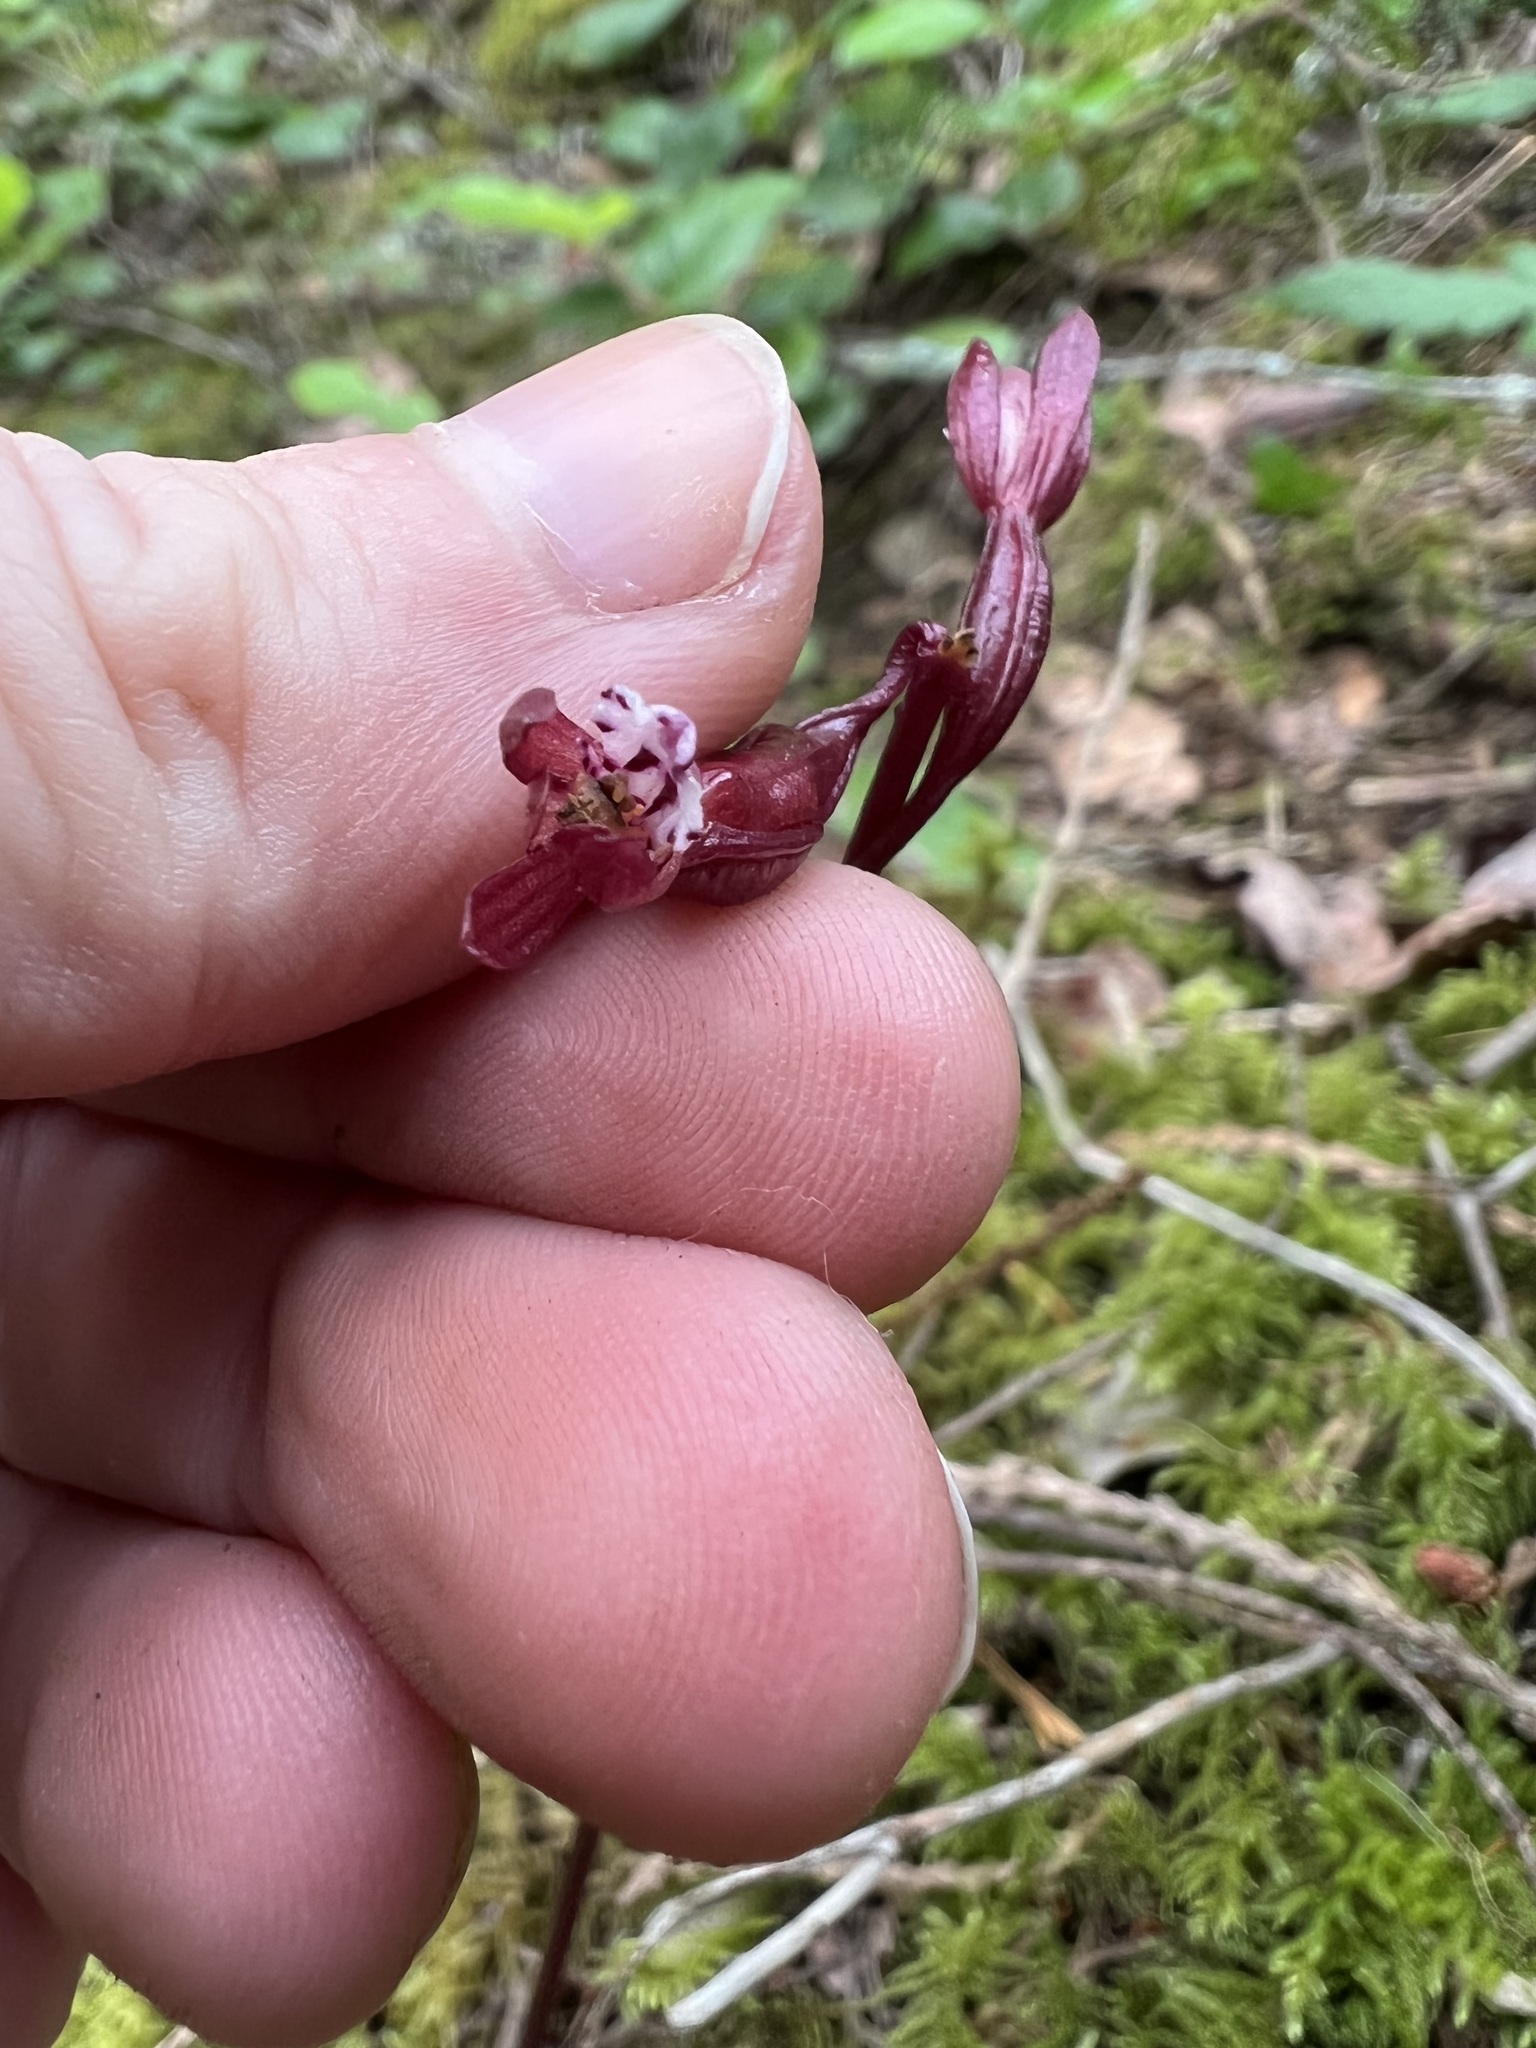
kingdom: Plantae
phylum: Tracheophyta
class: Liliopsida
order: Asparagales
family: Orchidaceae
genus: Corallorhiza
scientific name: Corallorhiza maculata
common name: Spotted coralroot
